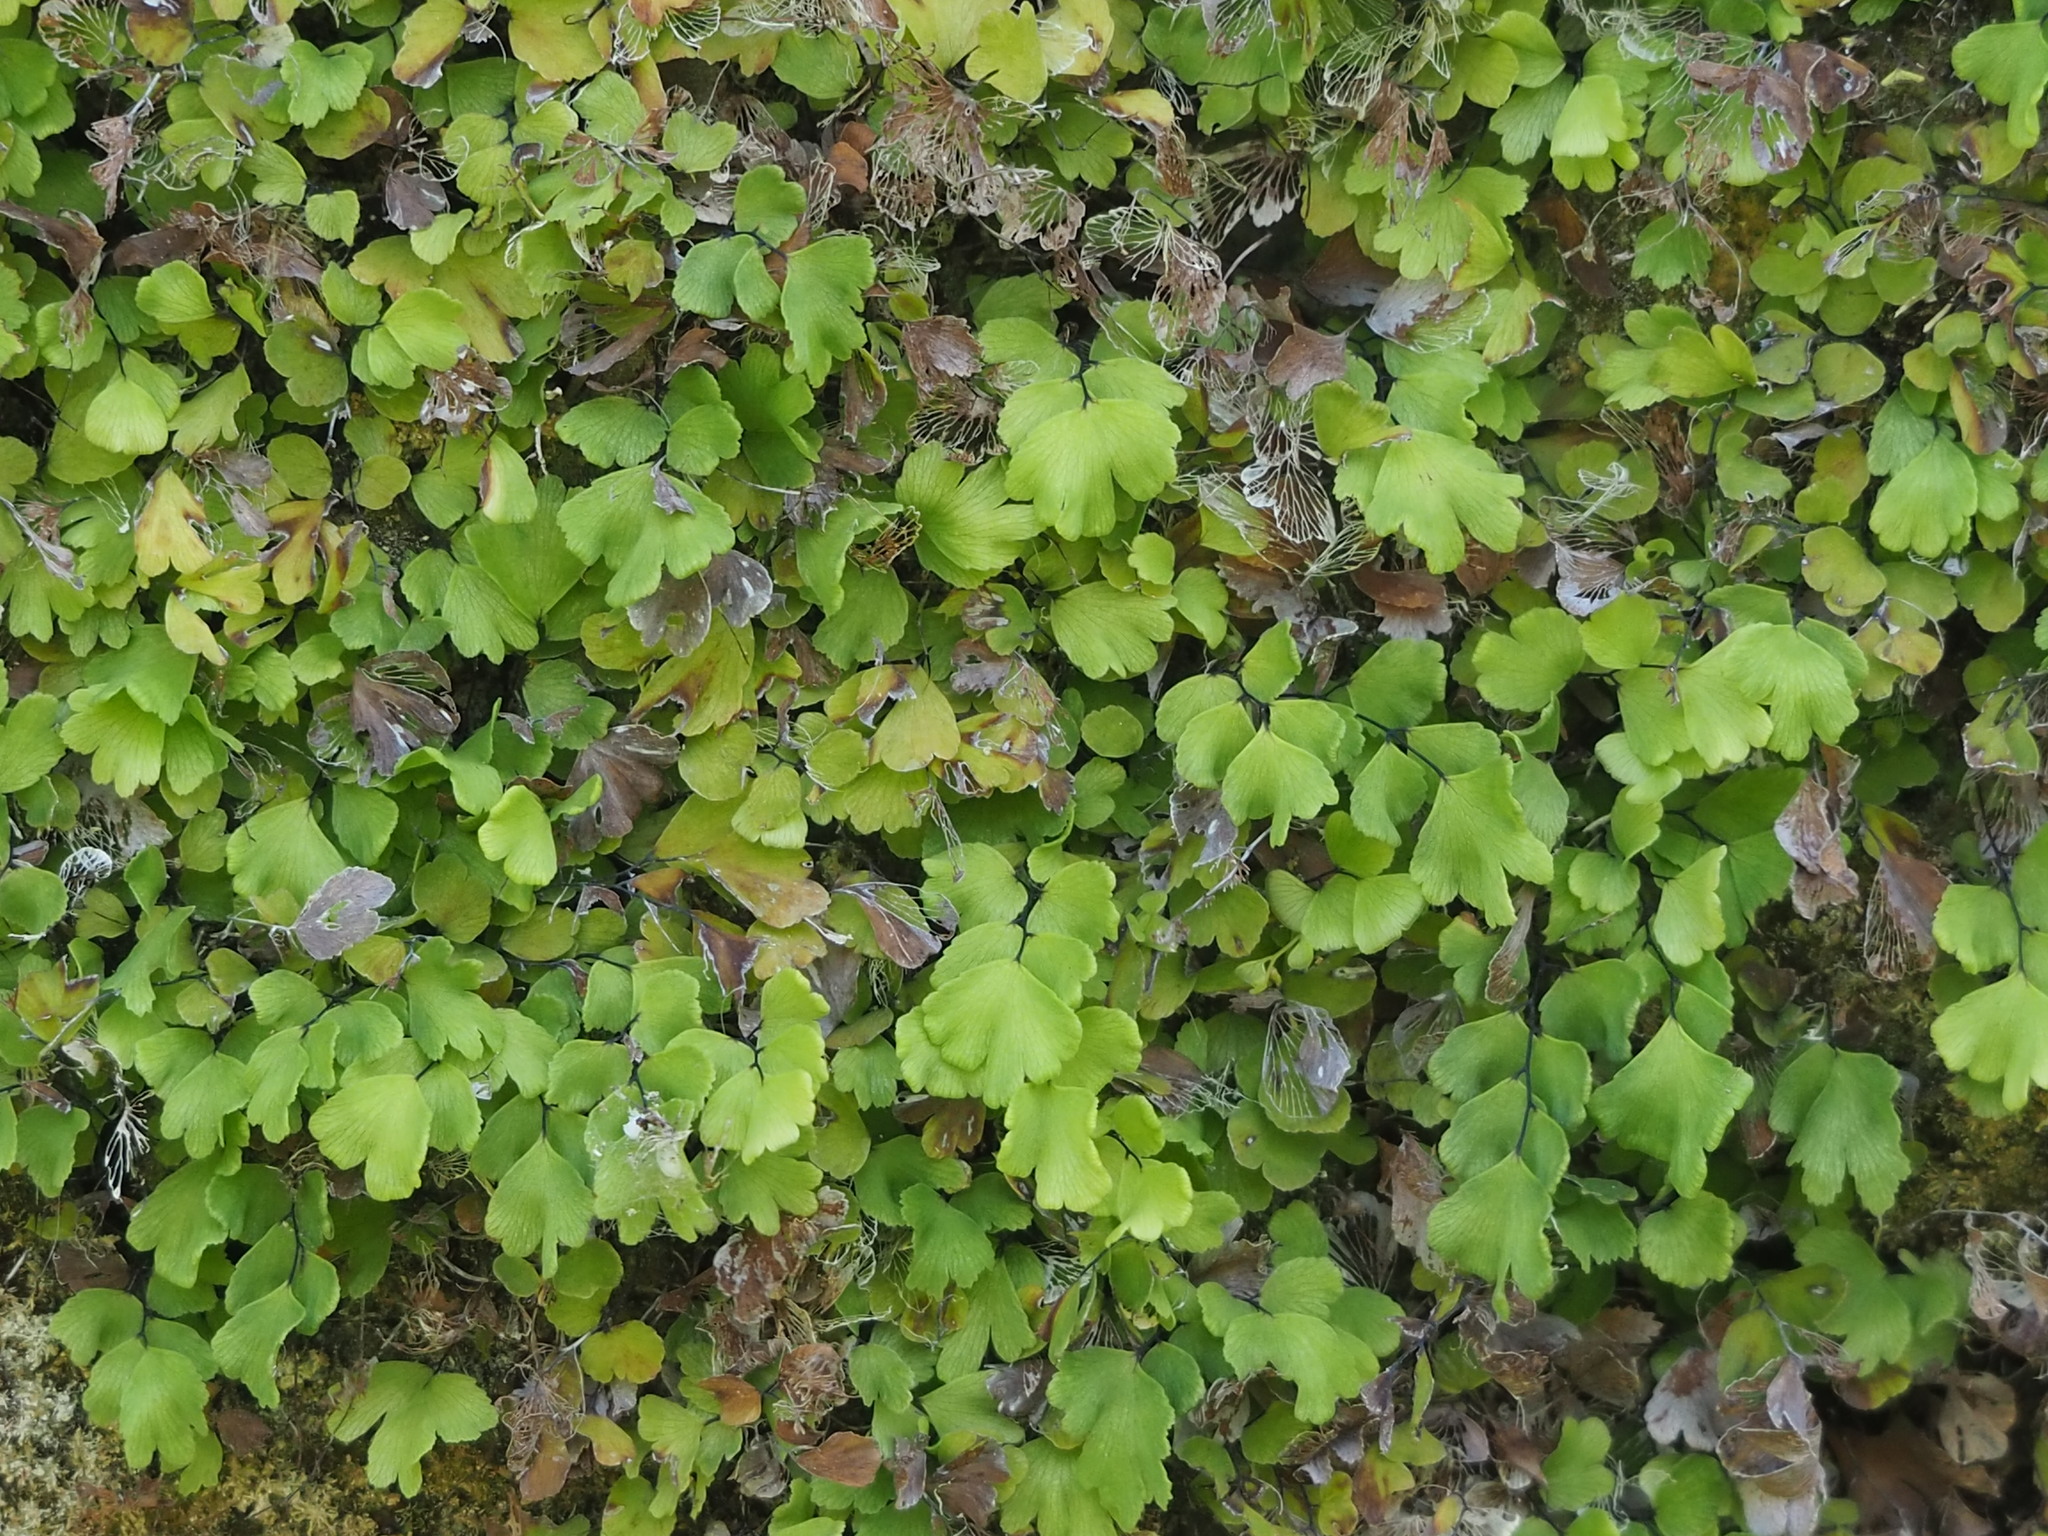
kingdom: Plantae
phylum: Tracheophyta
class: Polypodiopsida
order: Polypodiales
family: Pteridaceae
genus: Adiantum
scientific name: Adiantum capillus-veneris
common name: Maidenhair fern
